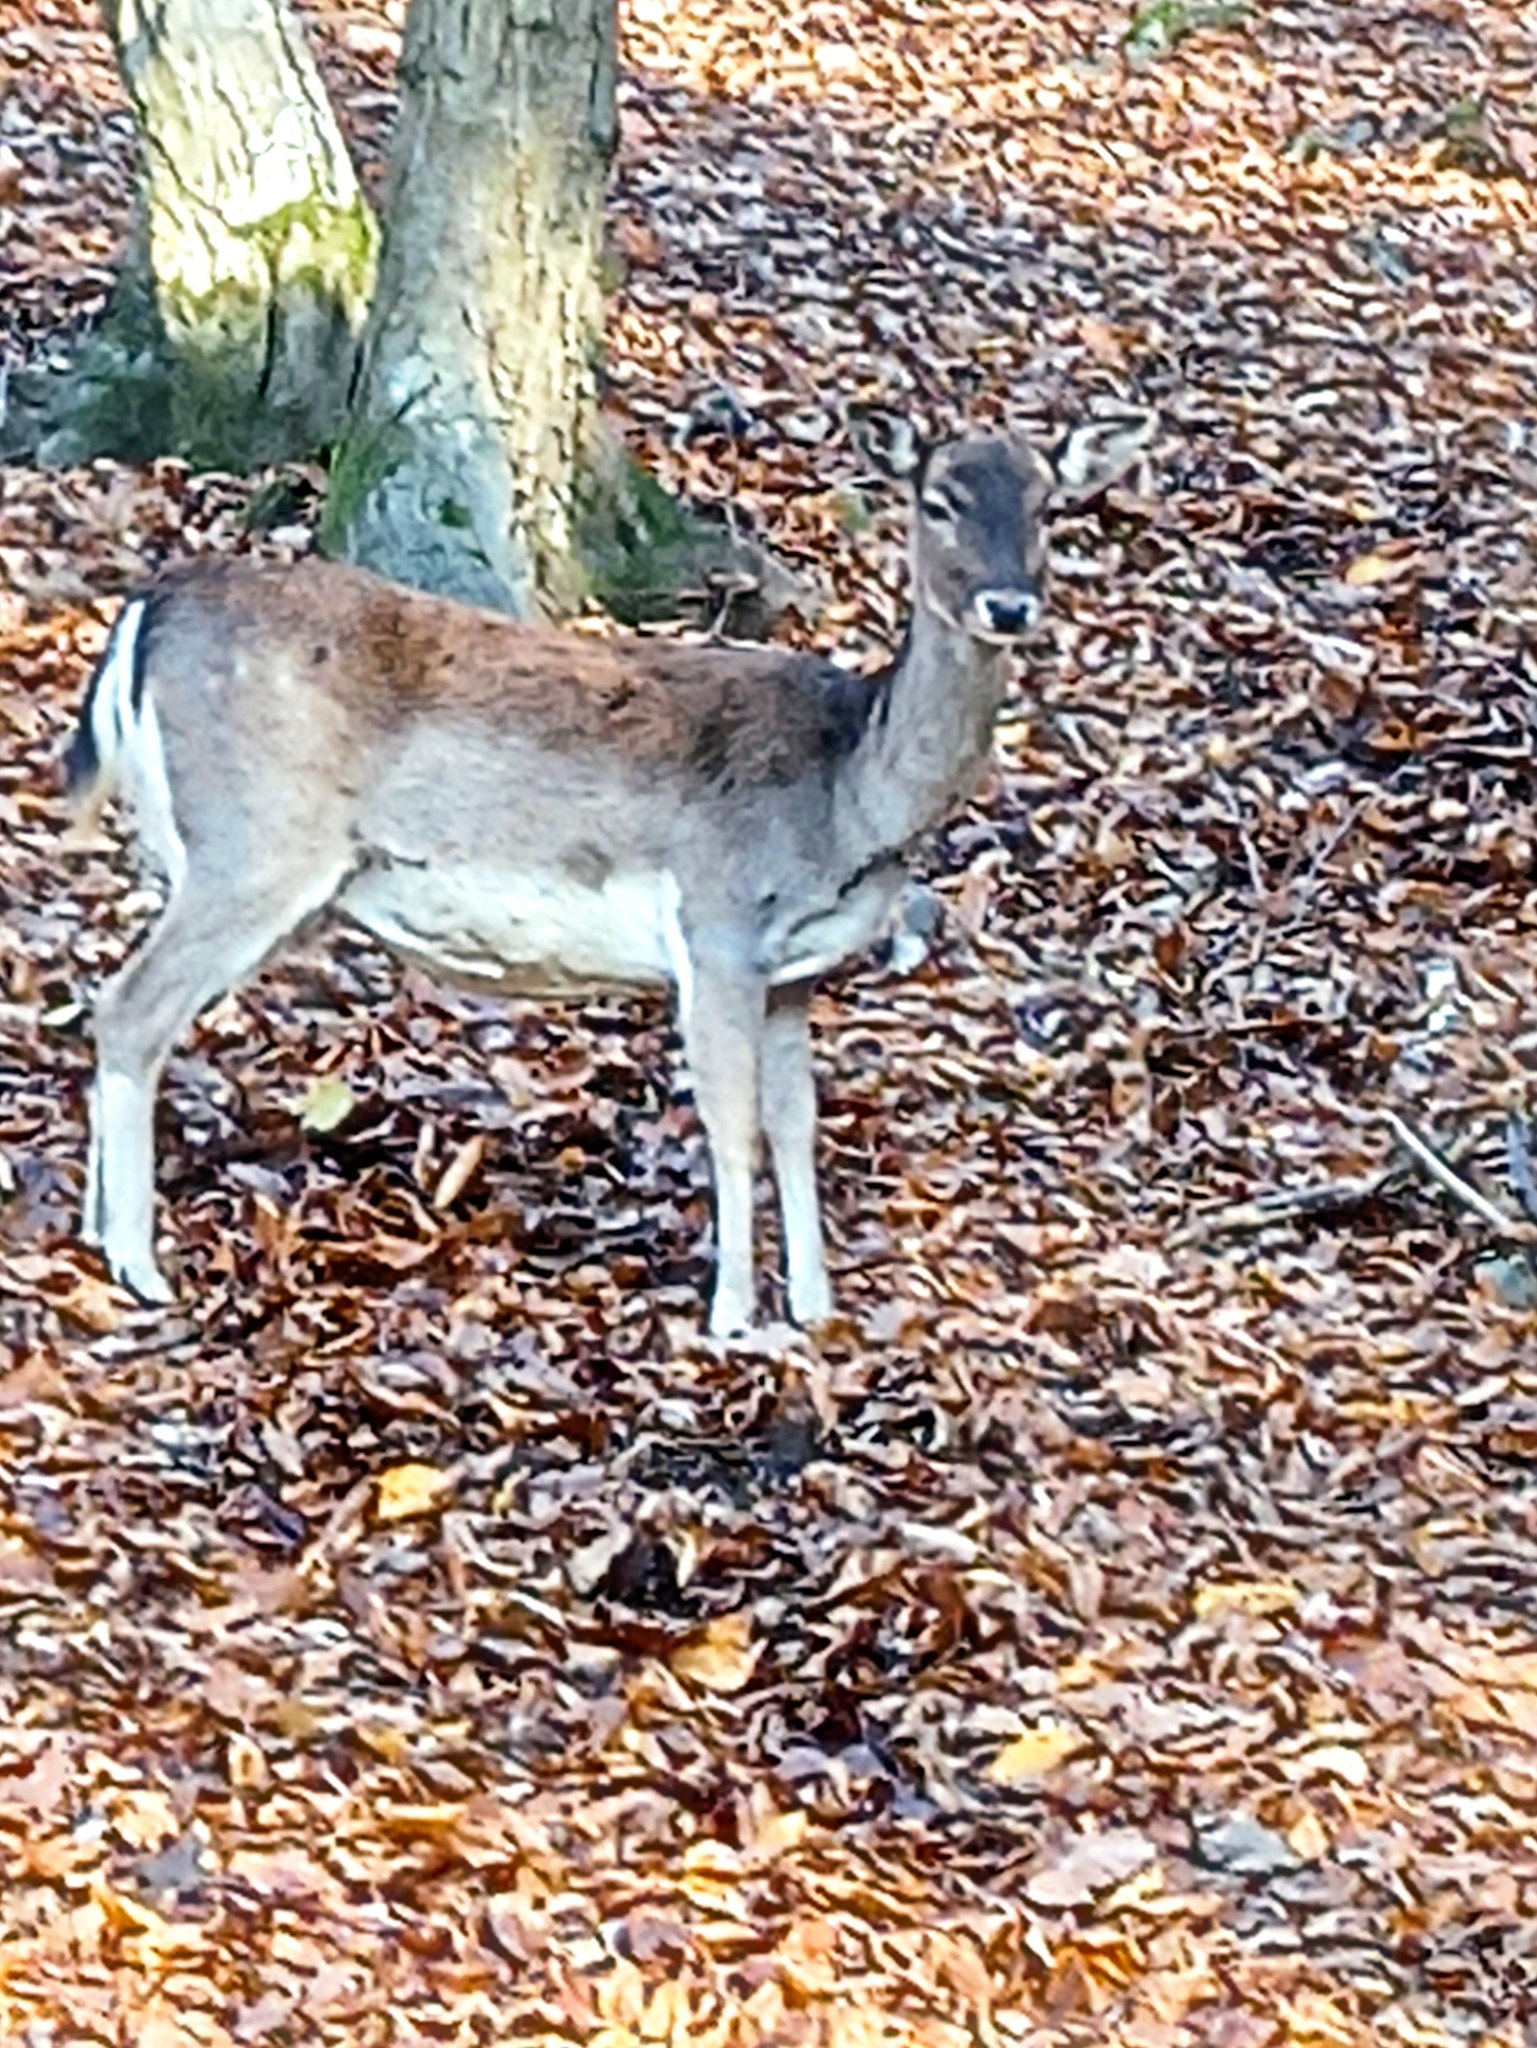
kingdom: Animalia
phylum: Chordata
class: Mammalia
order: Artiodactyla
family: Cervidae
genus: Dama
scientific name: Dama dama
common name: Fallow deer
